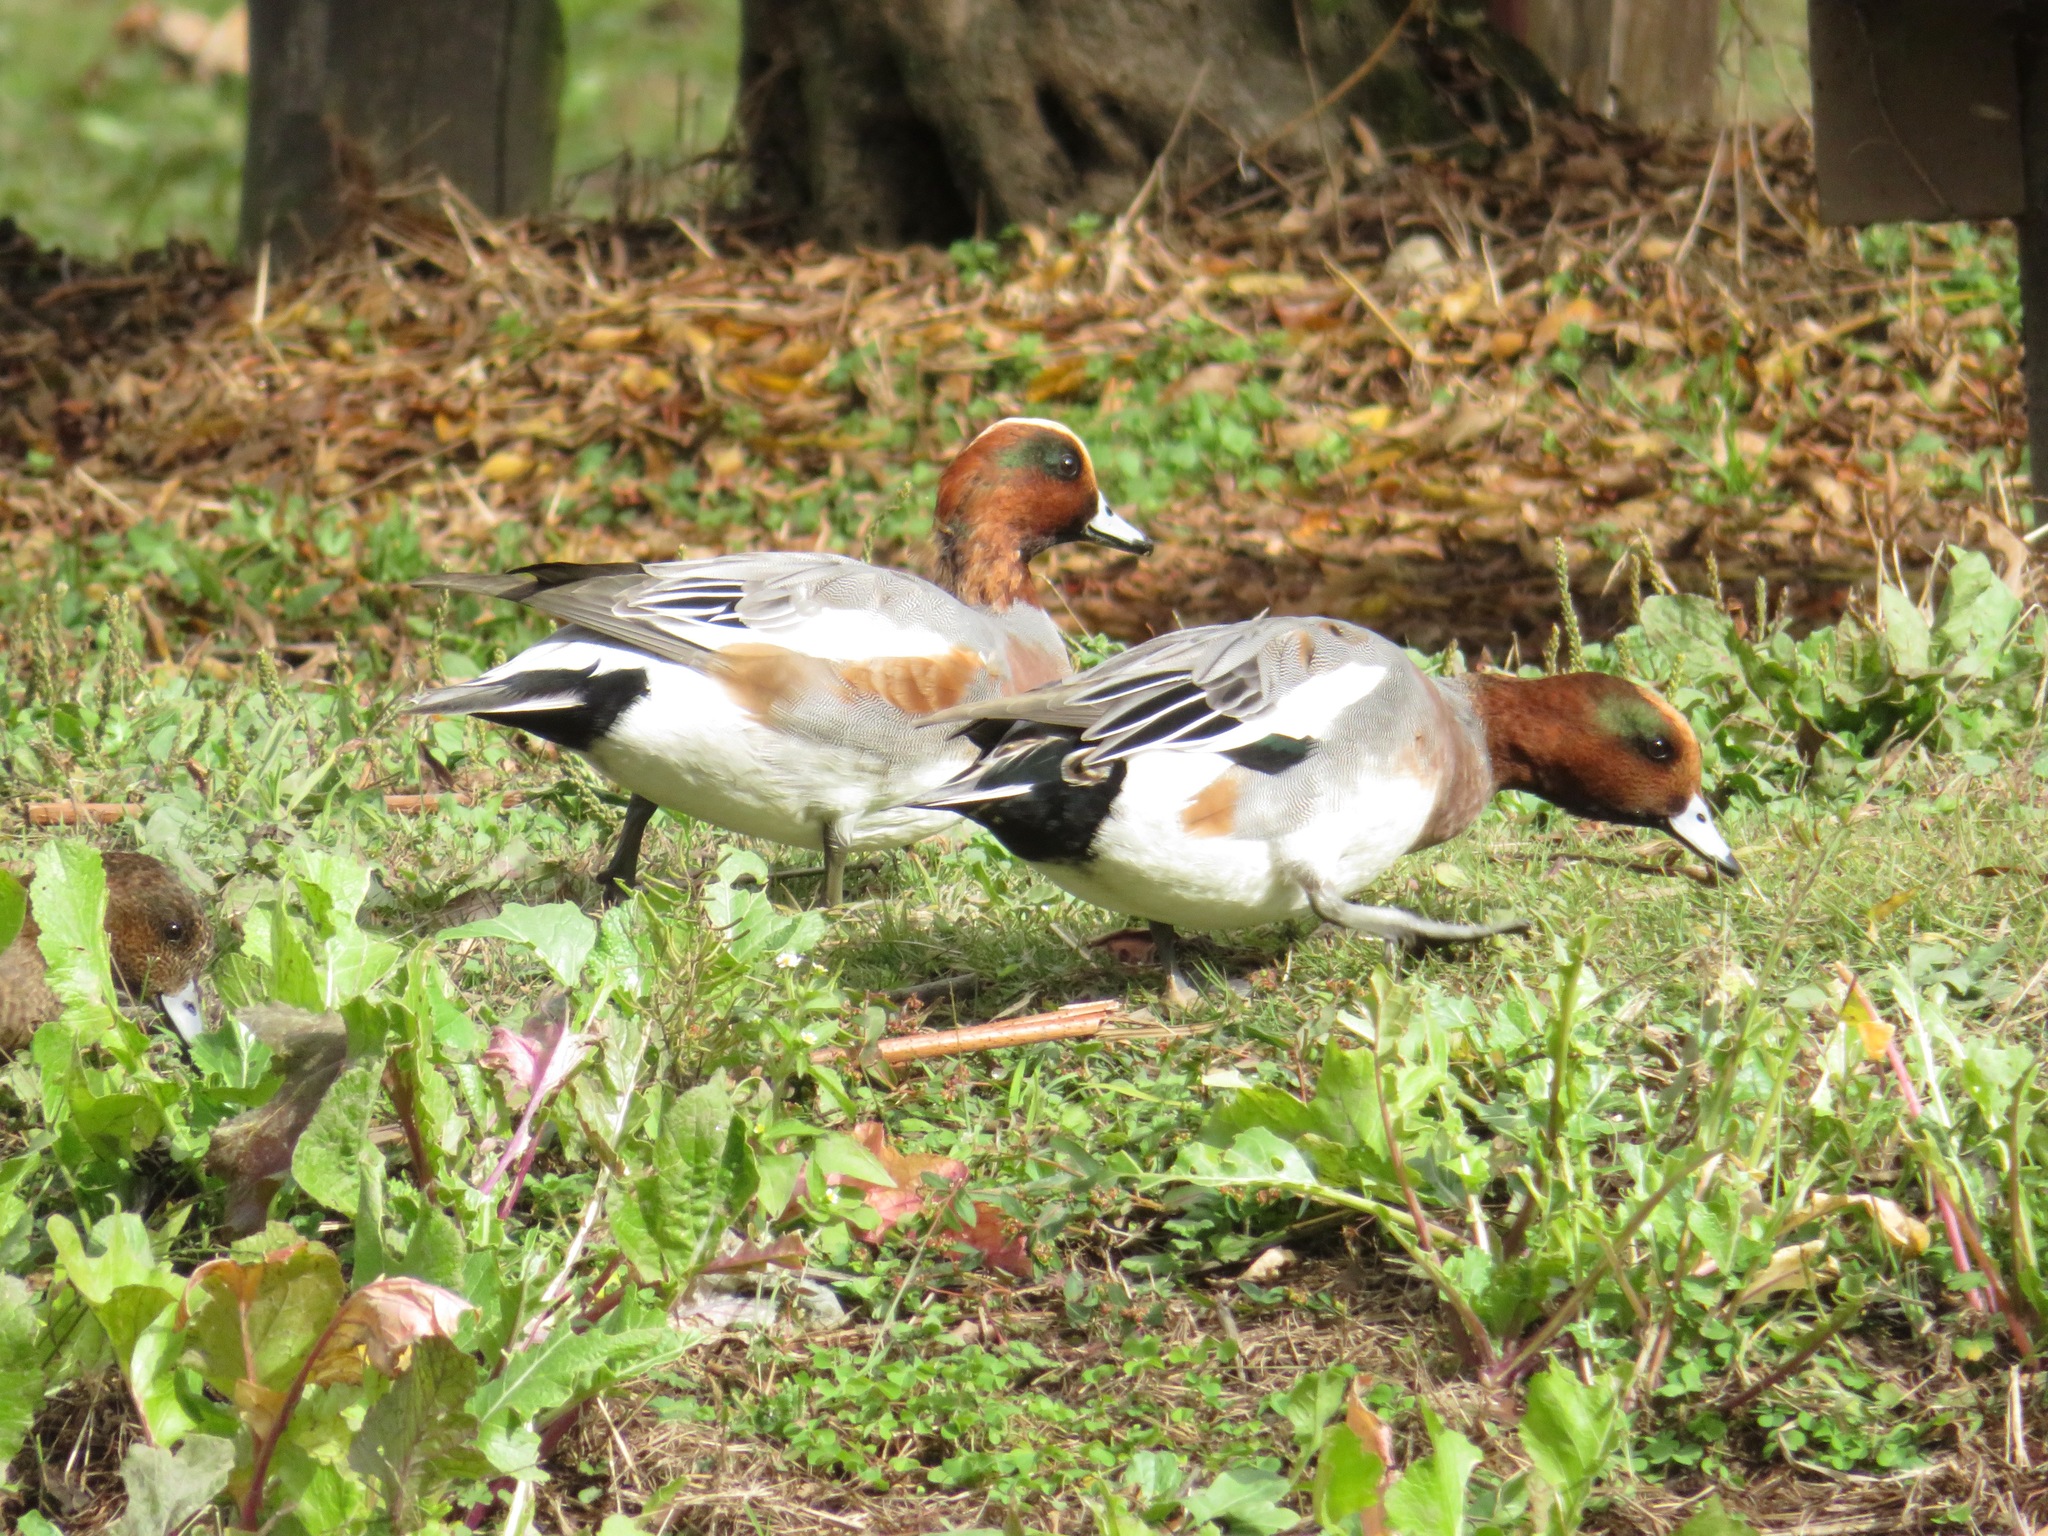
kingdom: Animalia
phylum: Chordata
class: Aves
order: Anseriformes
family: Anatidae
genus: Mareca
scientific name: Mareca penelope
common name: Eurasian wigeon
